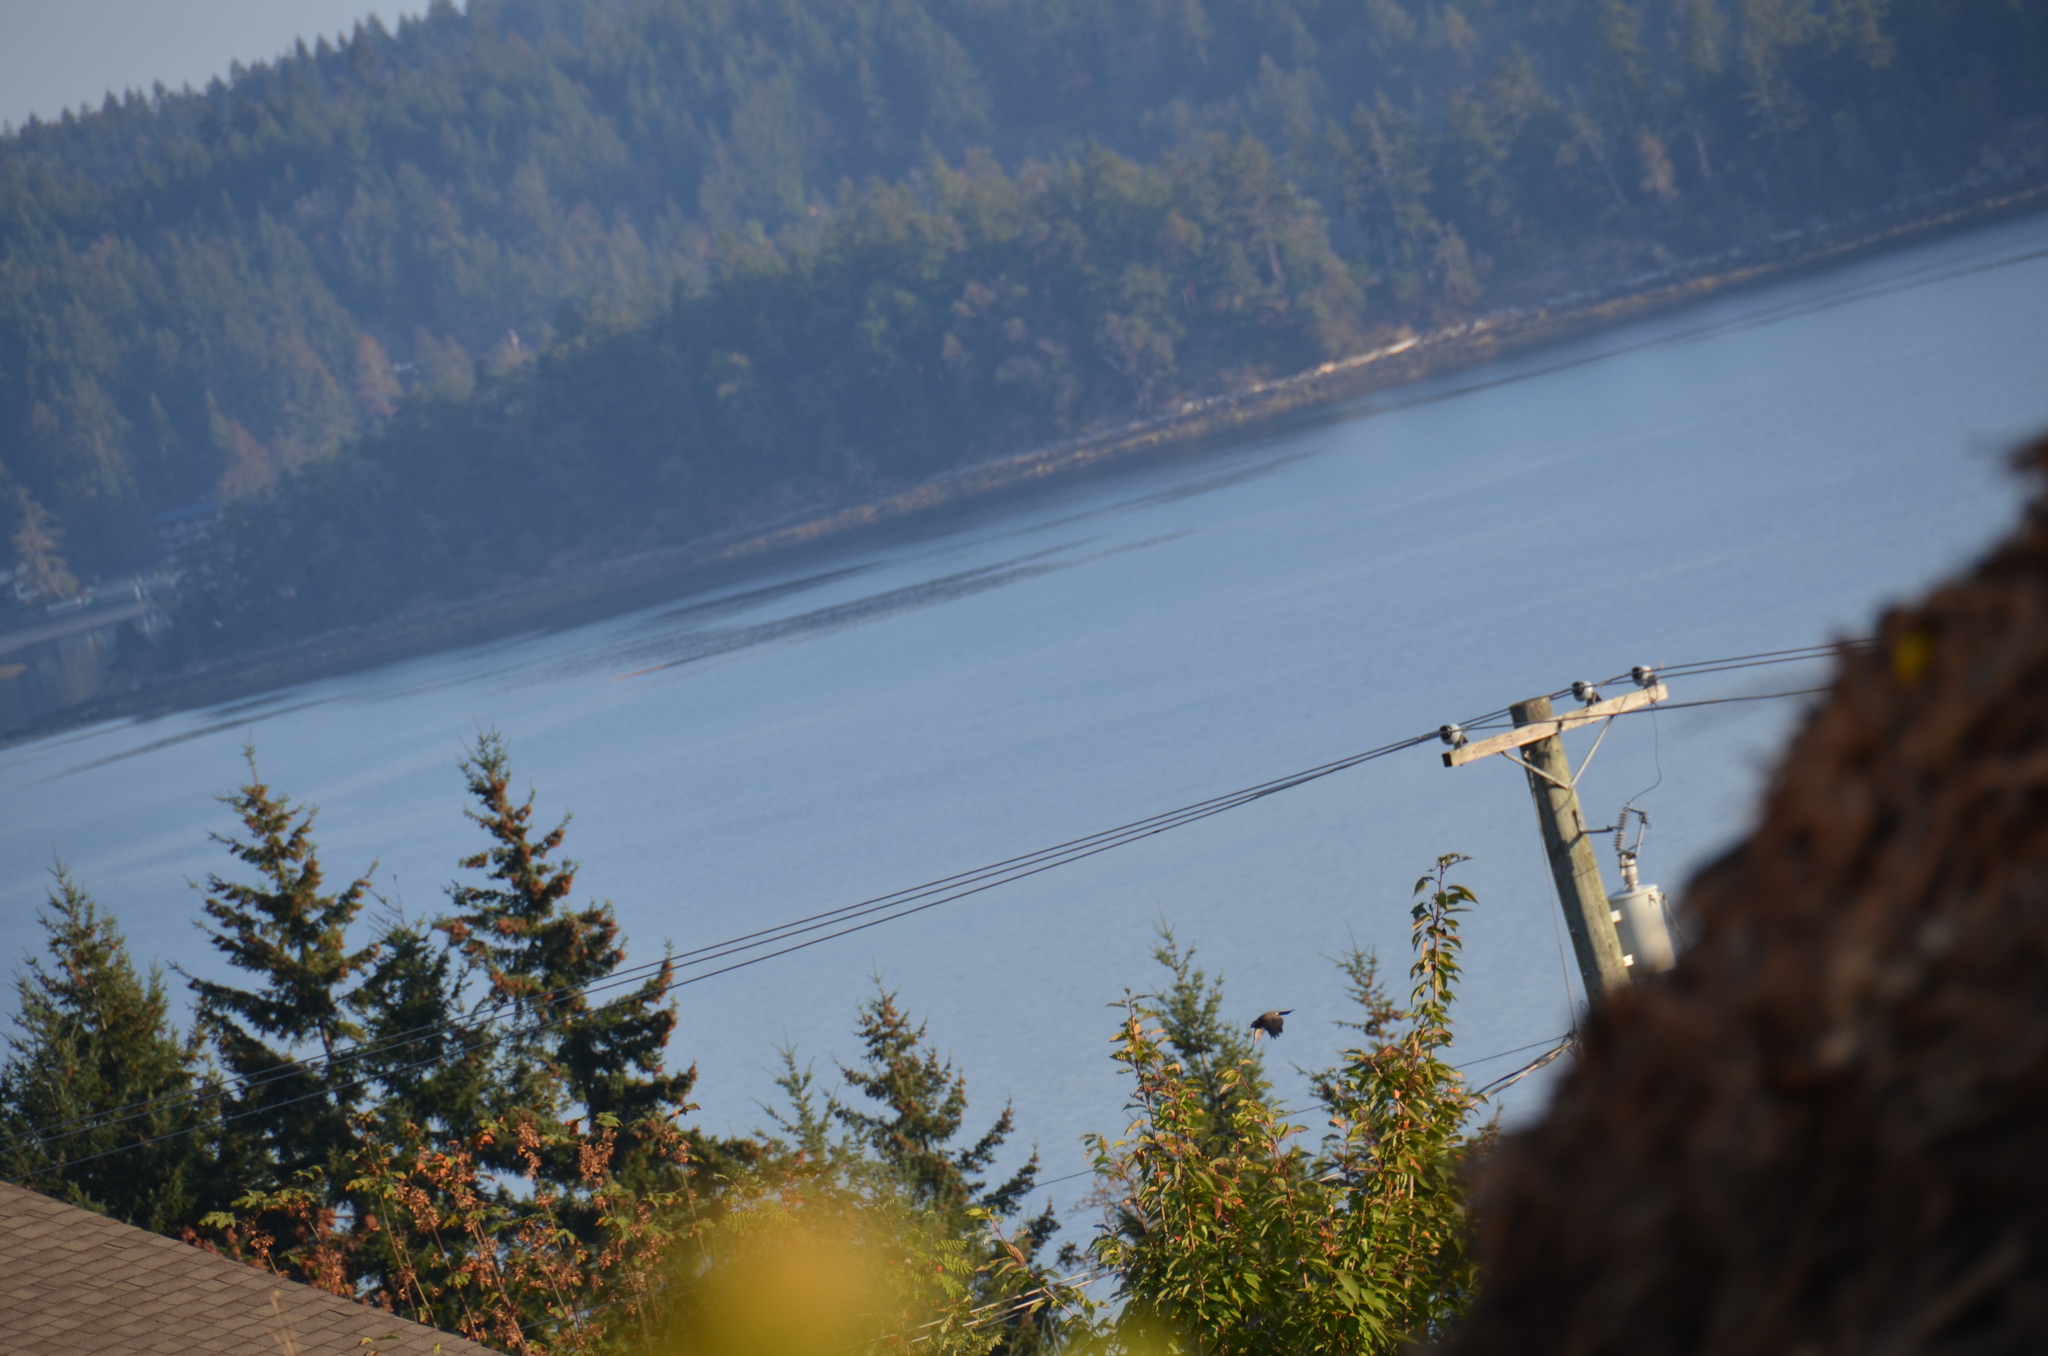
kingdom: Animalia
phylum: Chordata
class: Aves
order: Passeriformes
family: Turdidae
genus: Turdus
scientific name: Turdus migratorius
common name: American robin
